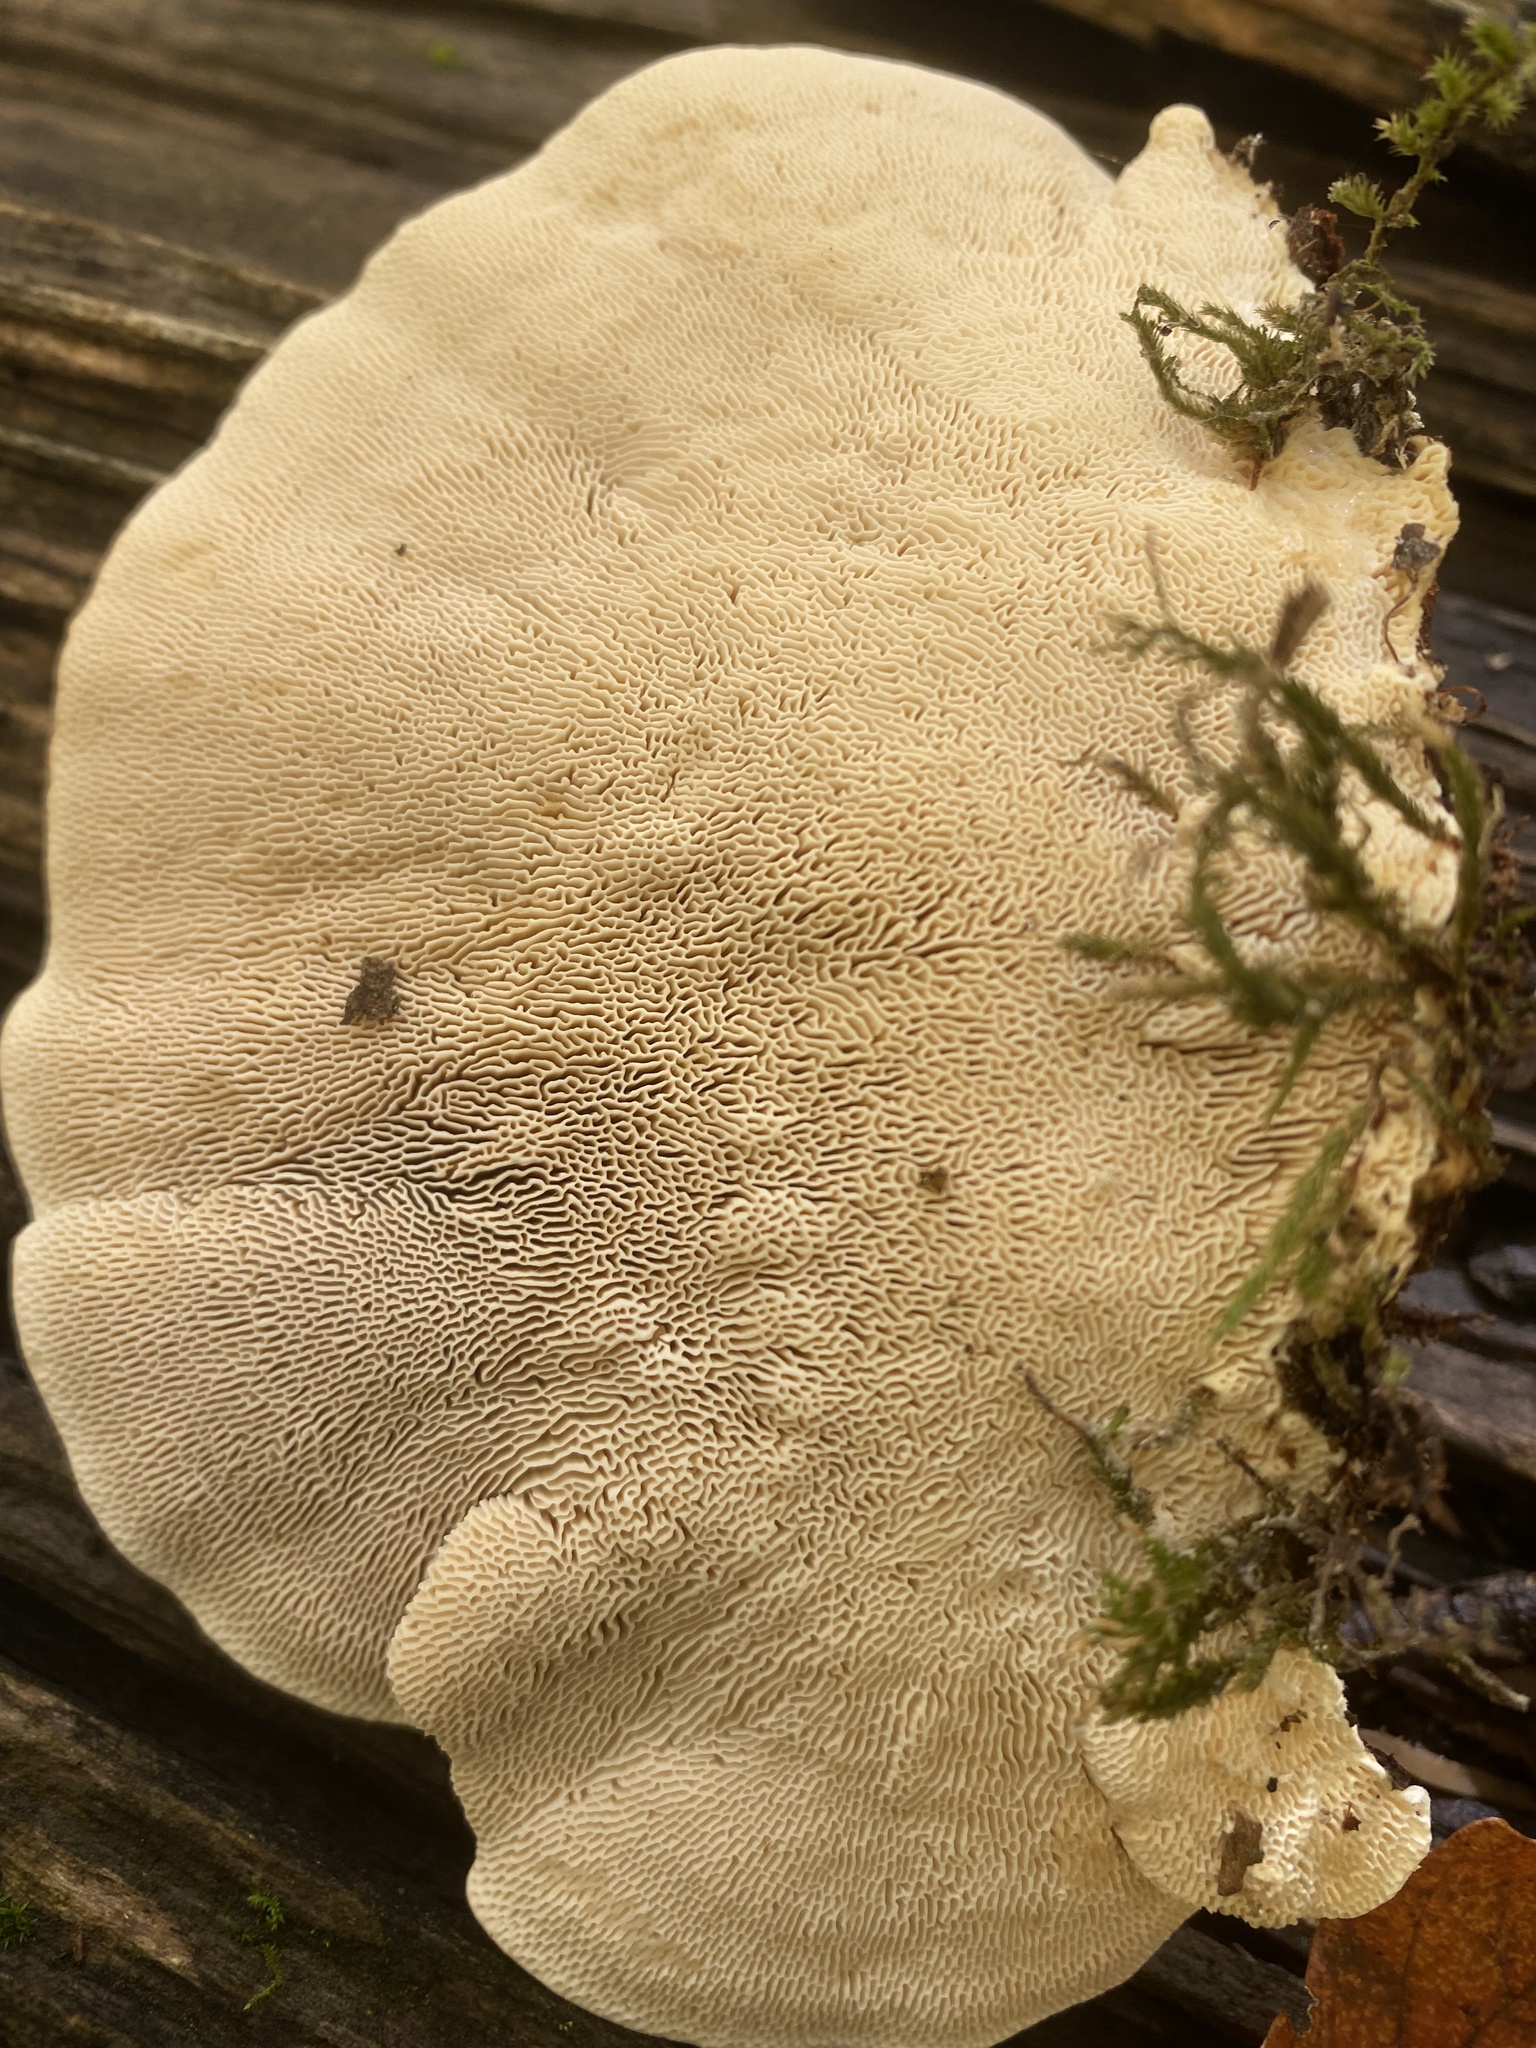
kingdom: Fungi
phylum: Basidiomycota
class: Agaricomycetes
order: Polyporales
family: Polyporaceae
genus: Trametes
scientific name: Trametes gibbosa
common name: Lumpy bracket
